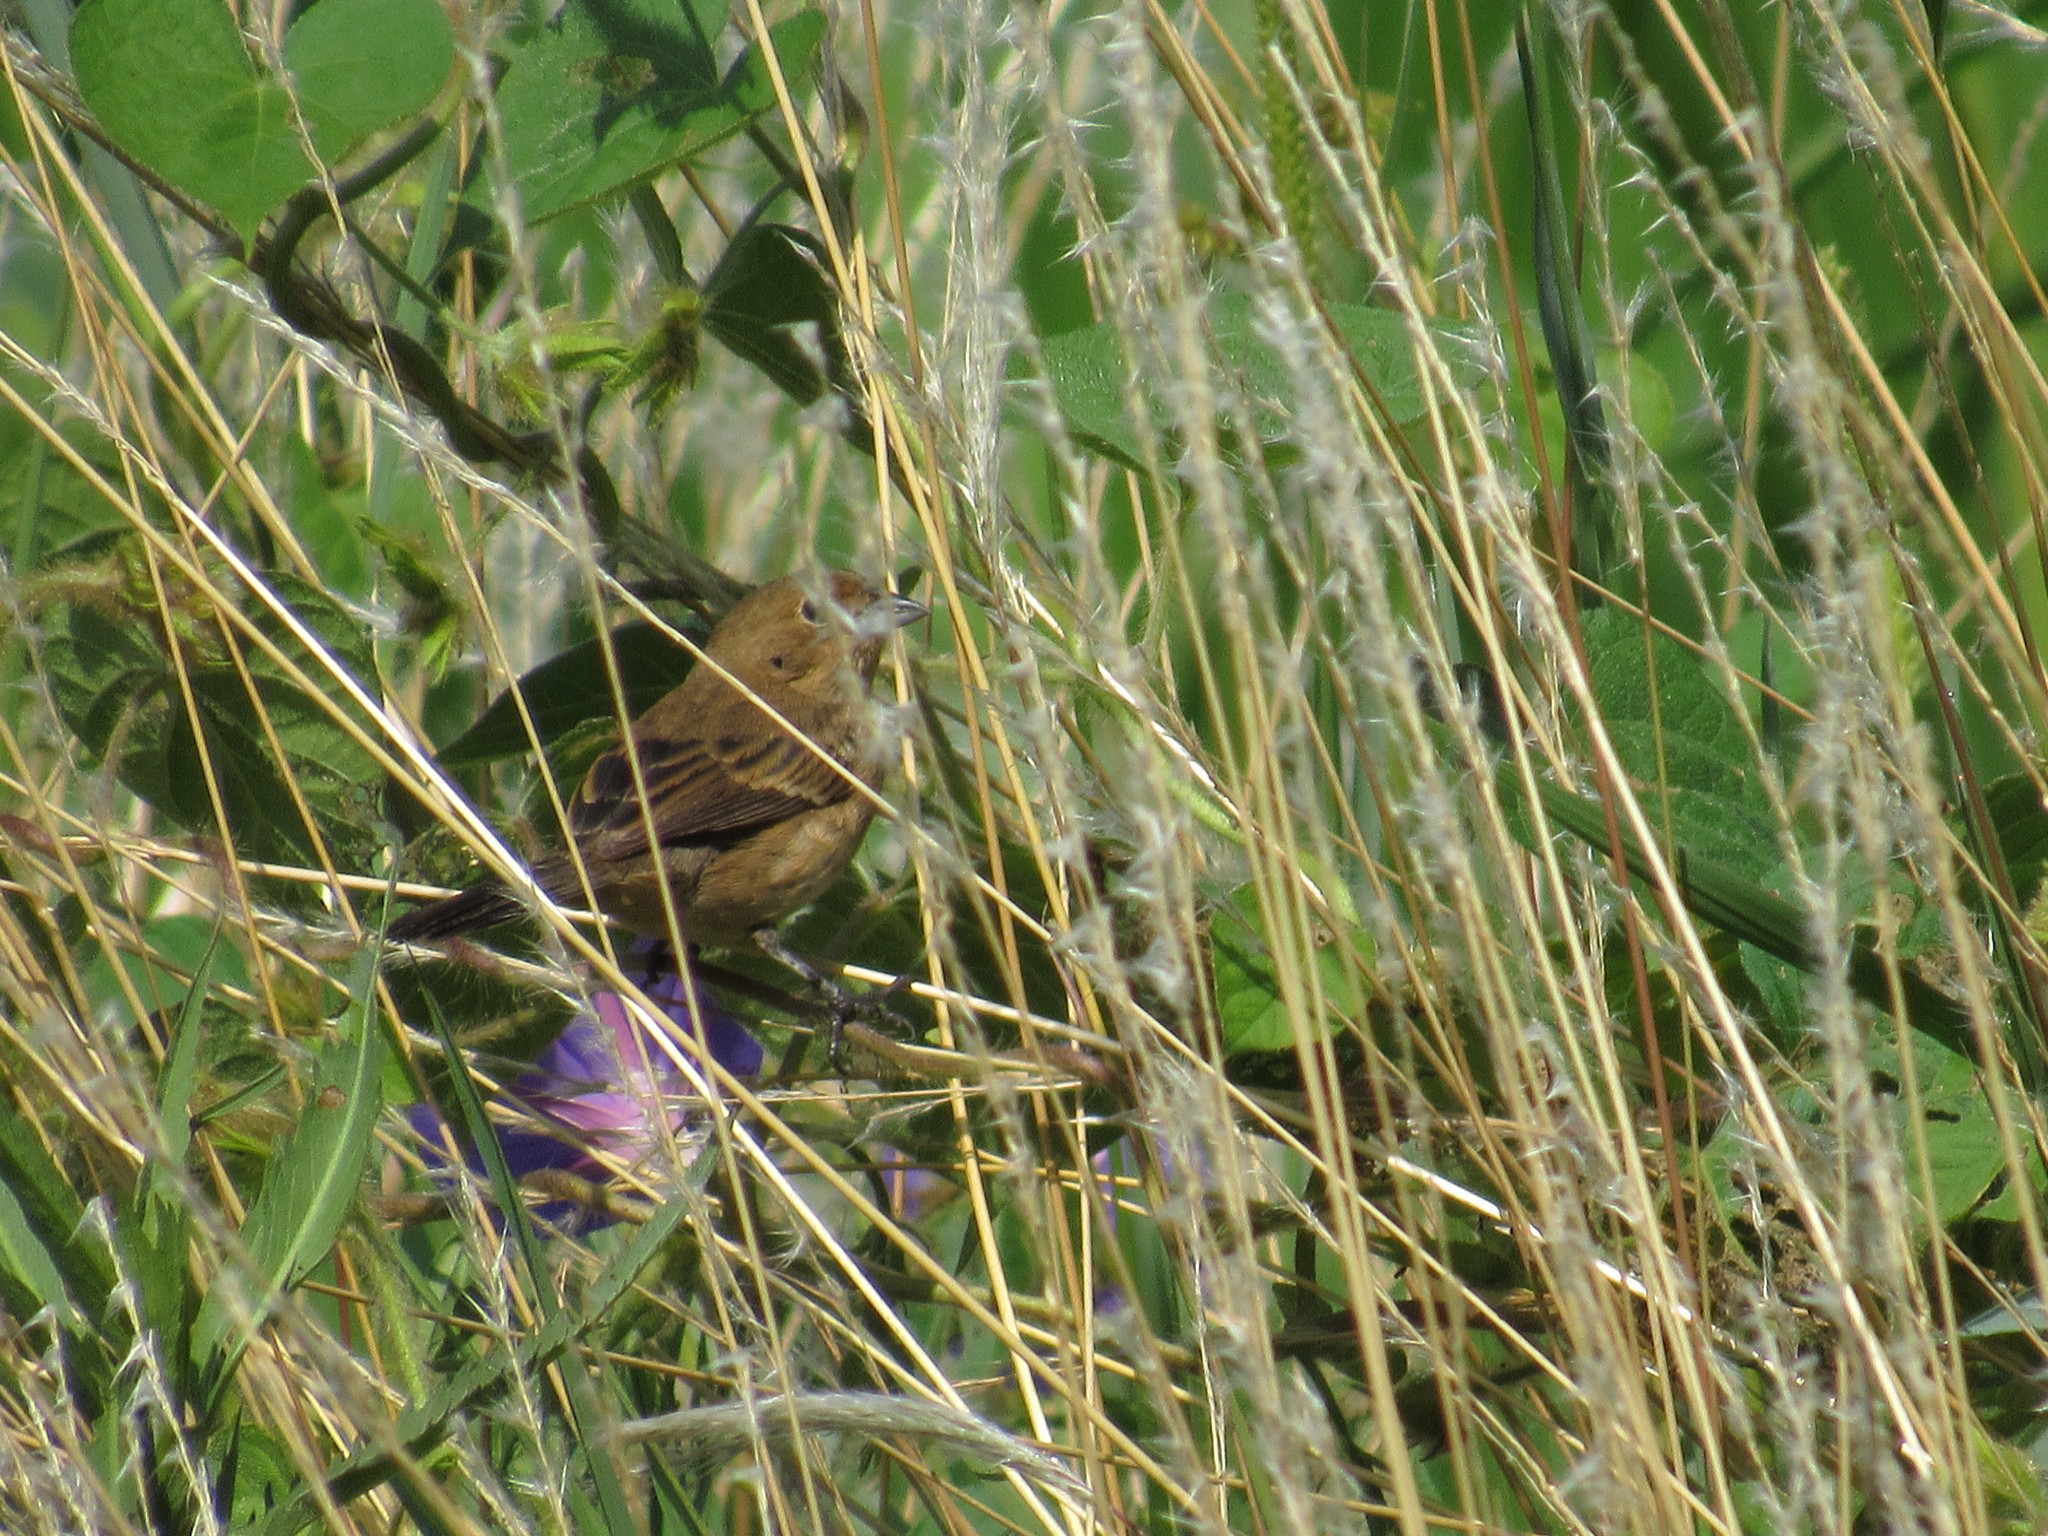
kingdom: Animalia
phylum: Chordata
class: Aves
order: Passeriformes
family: Thraupidae
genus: Volatinia
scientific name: Volatinia jacarina
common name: Blue-black grassquit
